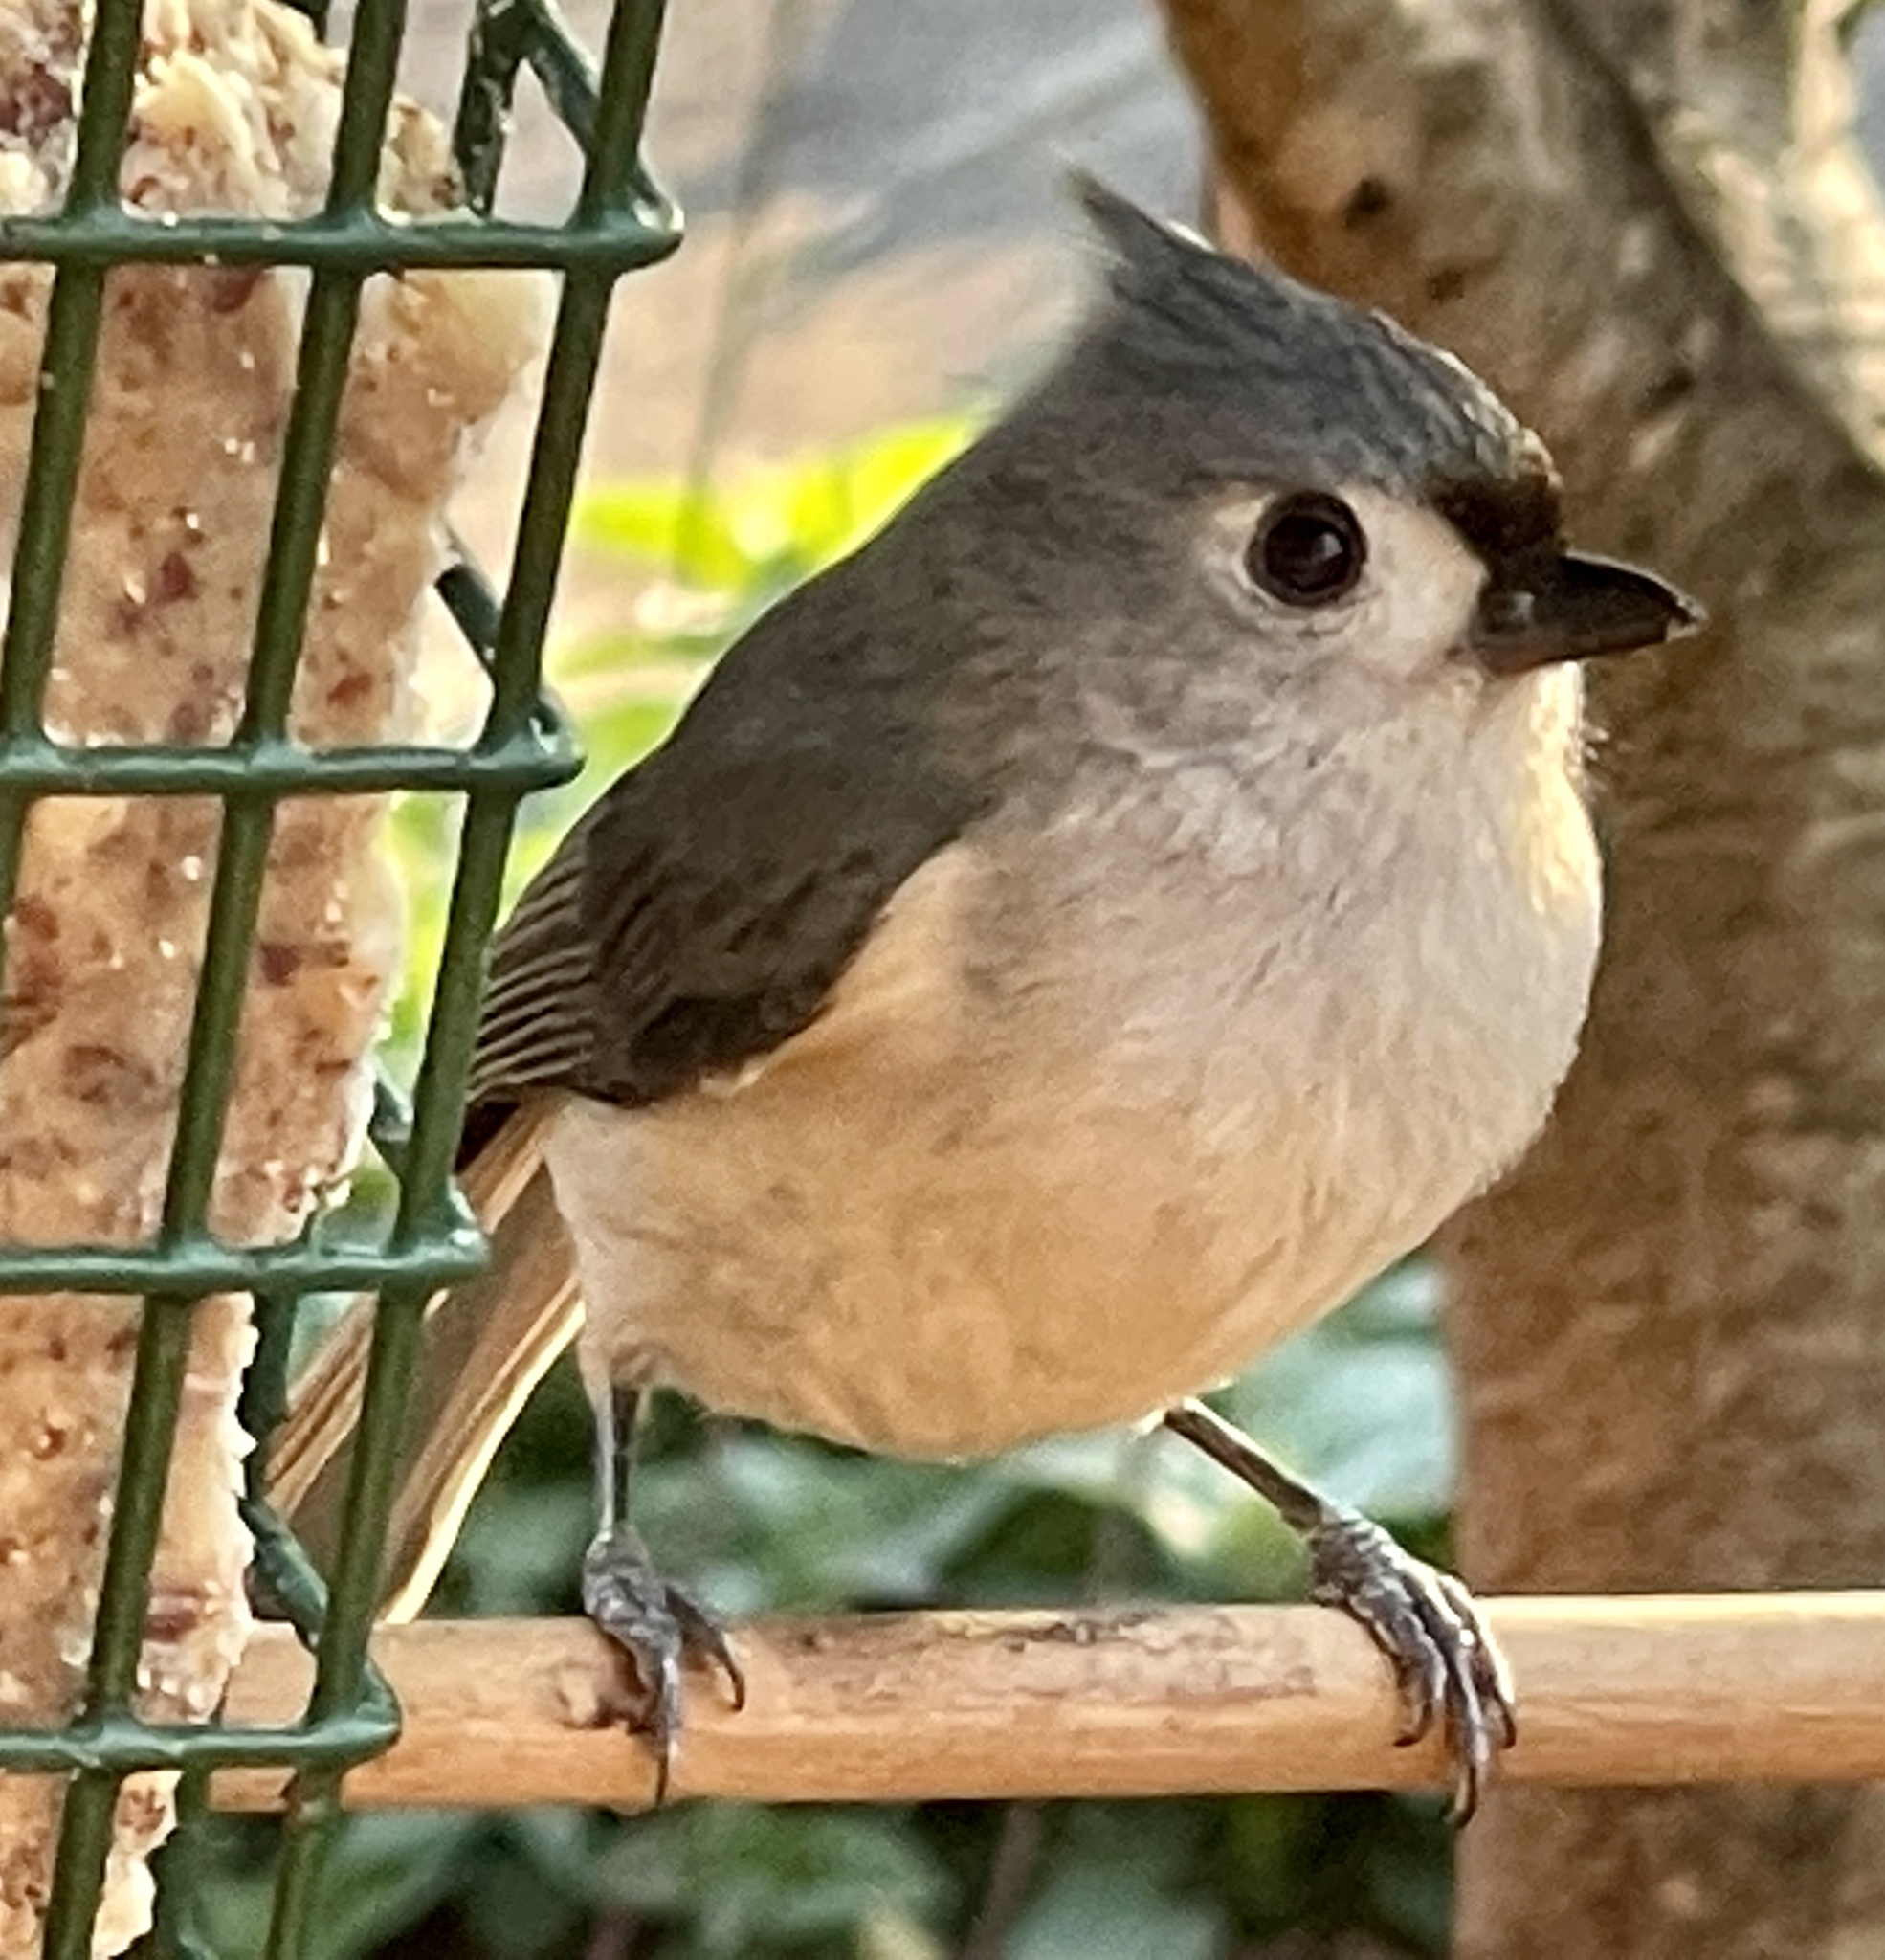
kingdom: Animalia
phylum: Chordata
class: Aves
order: Passeriformes
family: Paridae
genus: Baeolophus
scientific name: Baeolophus bicolor
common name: Tufted titmouse
